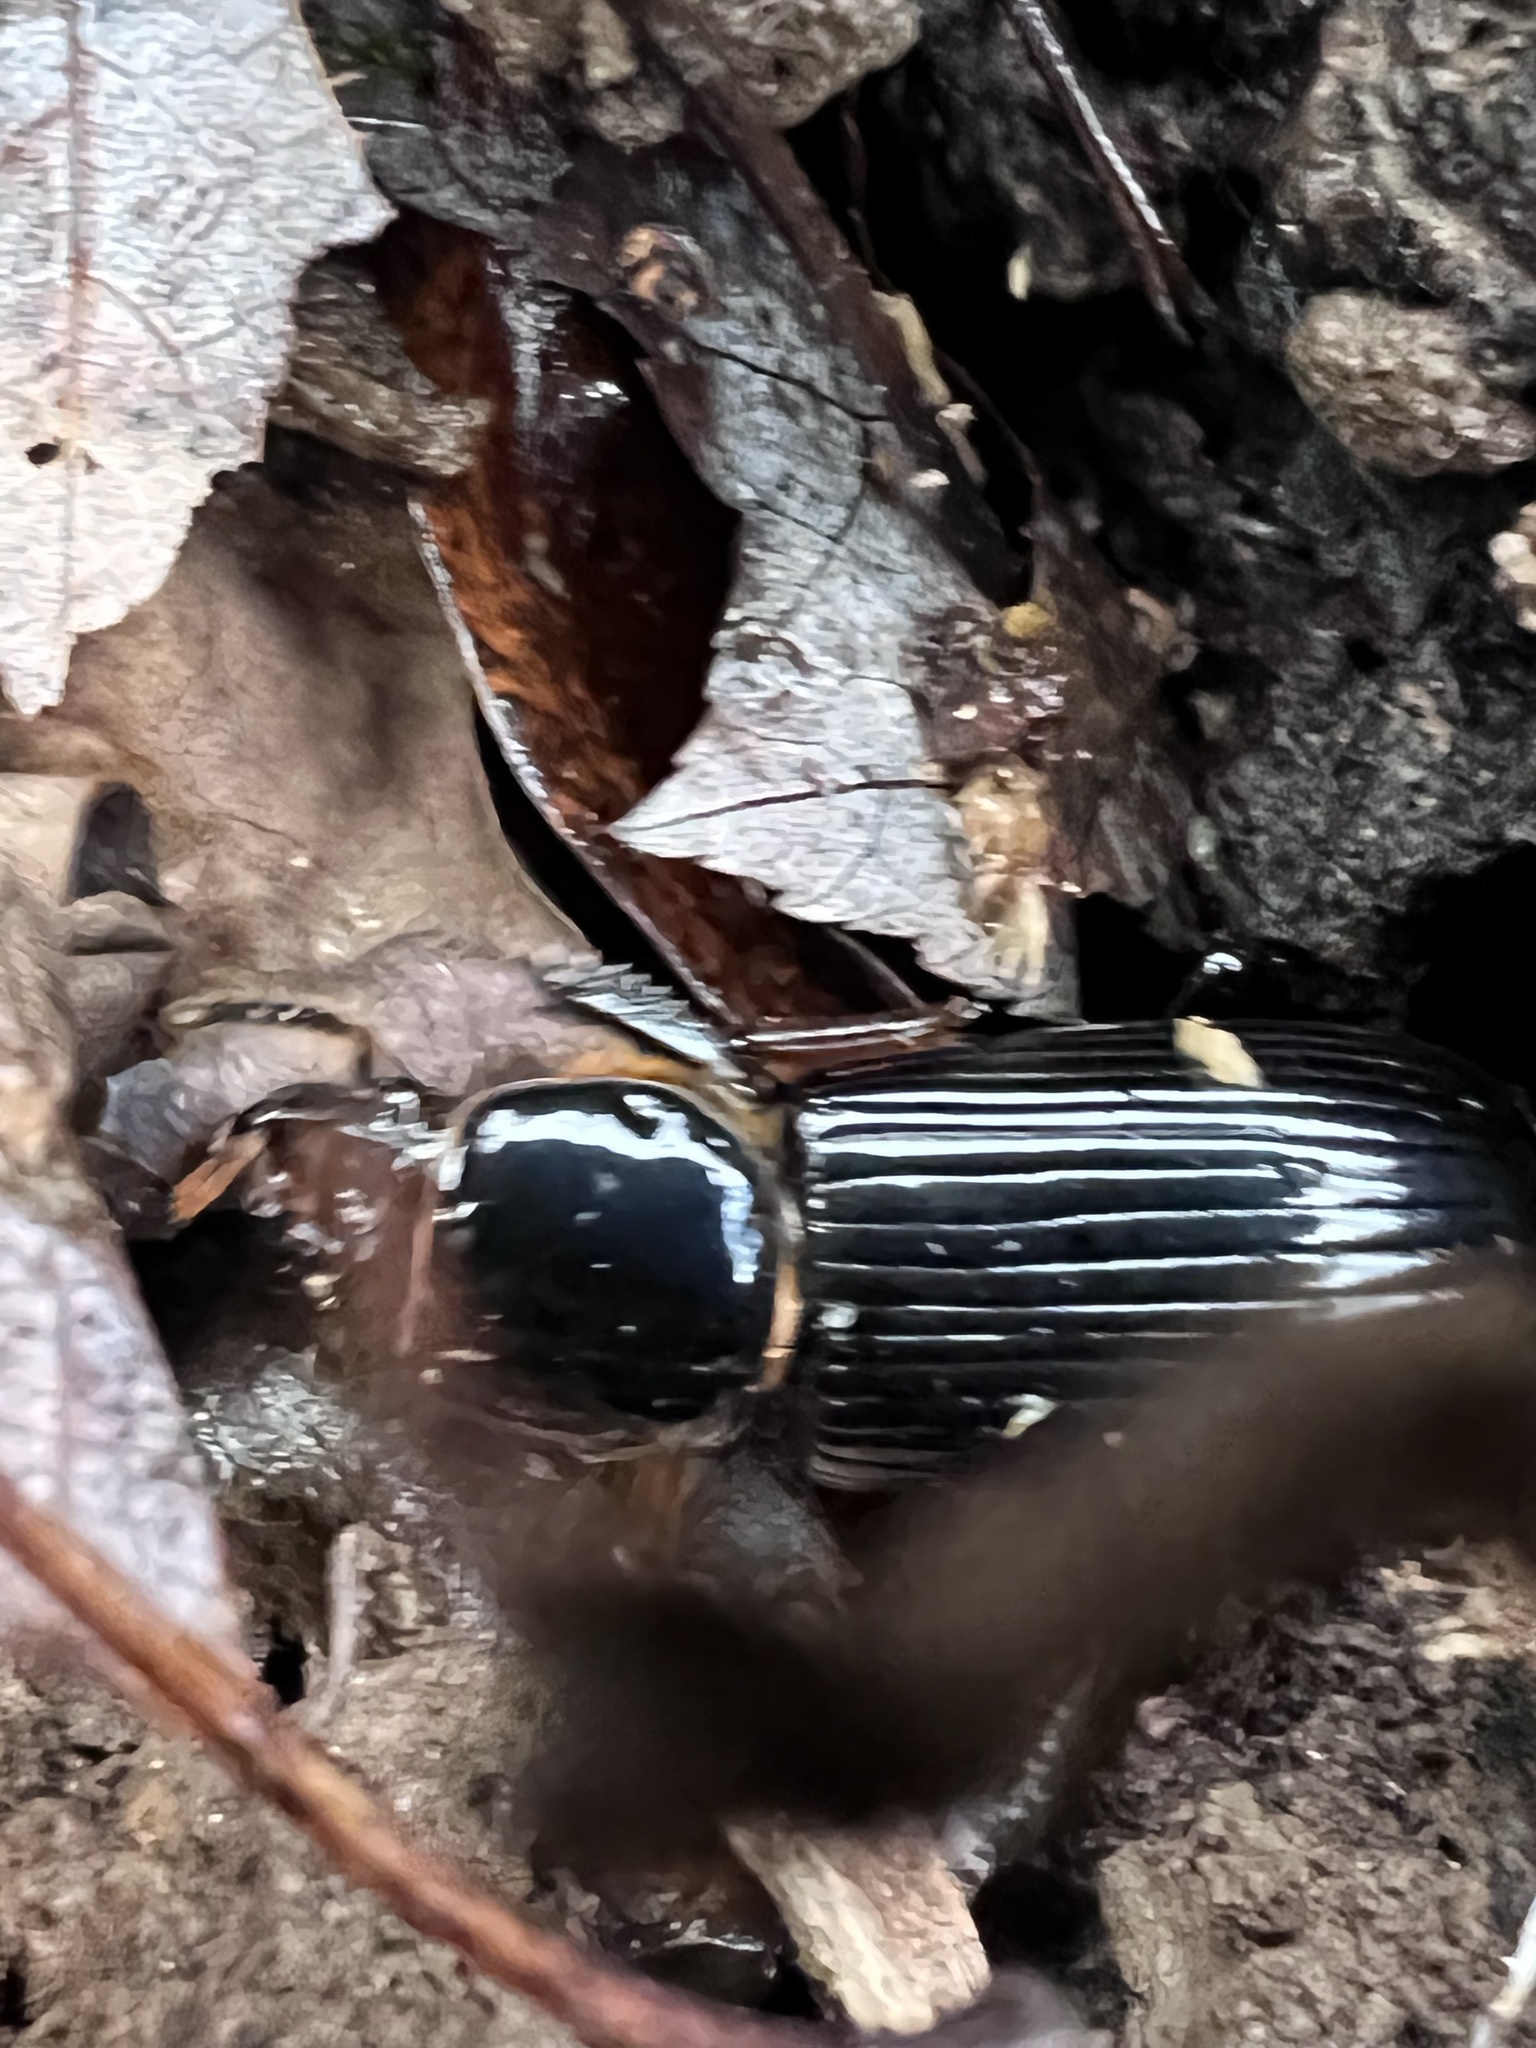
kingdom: Animalia
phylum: Arthropoda
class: Insecta
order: Coleoptera
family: Passalidae
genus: Odontotaenius
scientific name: Odontotaenius disjunctus
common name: Patent leather beetle
